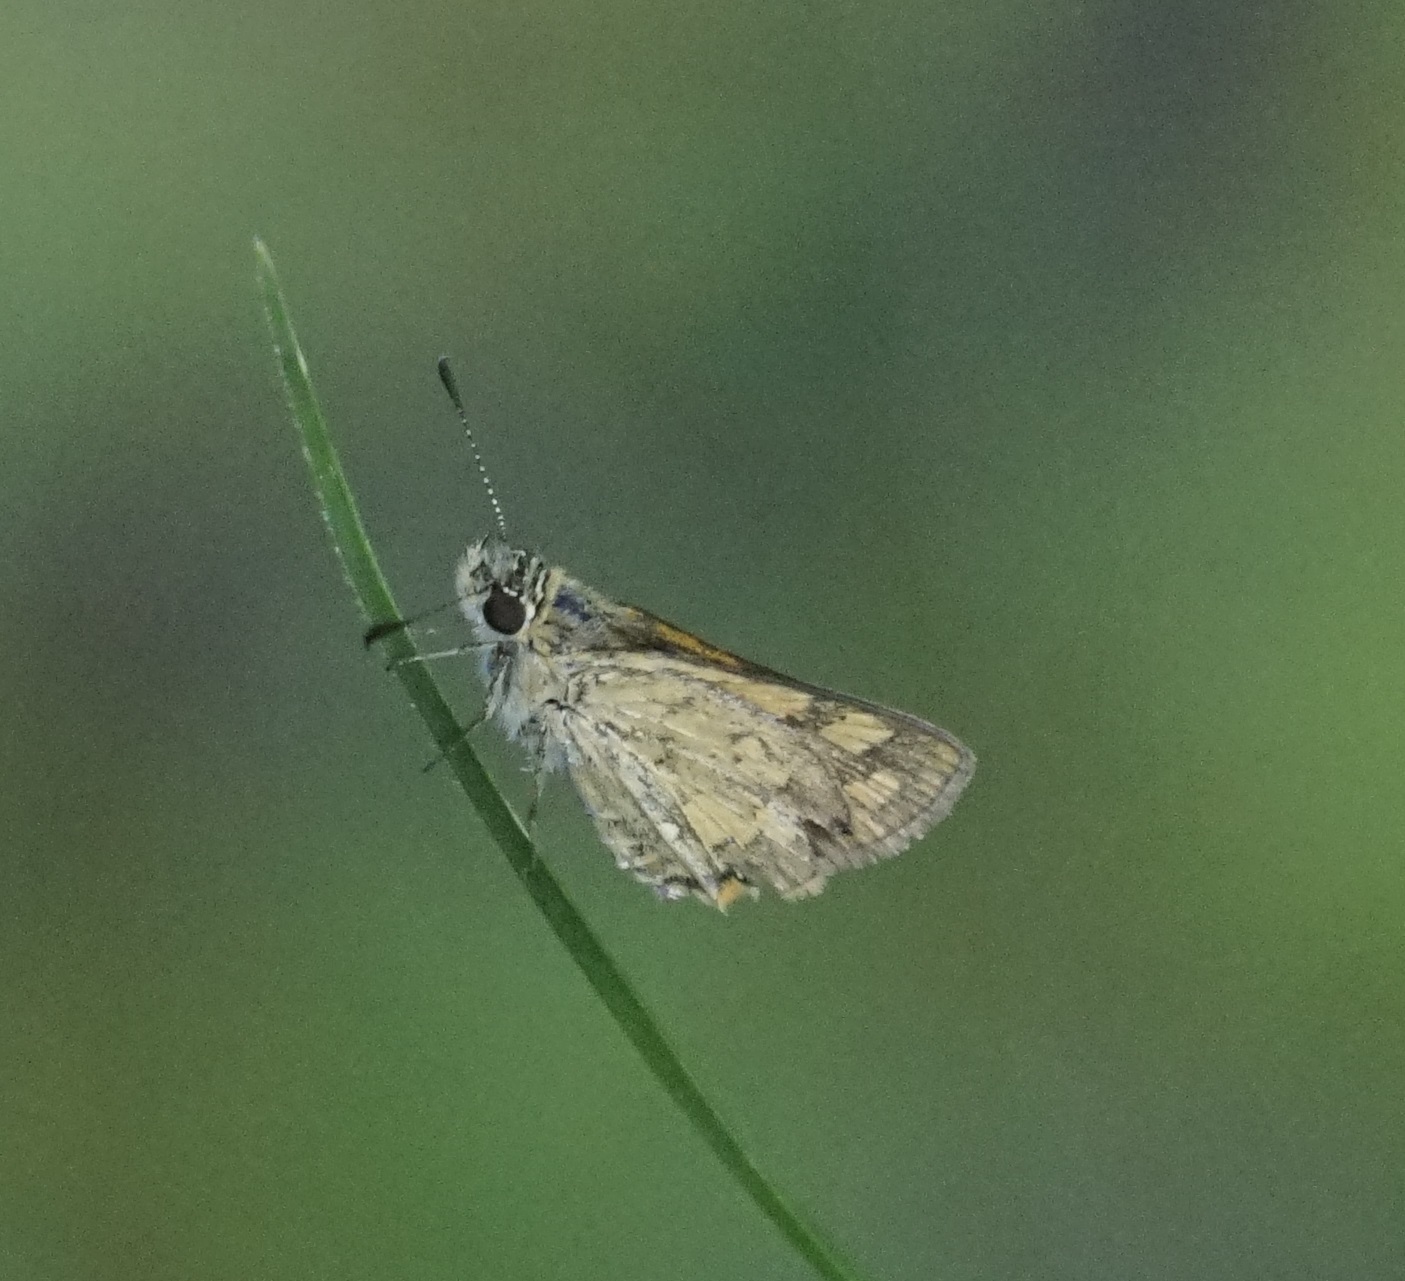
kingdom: Animalia
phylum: Arthropoda
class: Insecta
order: Lepidoptera
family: Hesperiidae
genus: Ocybadistes
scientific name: Ocybadistes walkeri
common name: Yellow-banded dart
